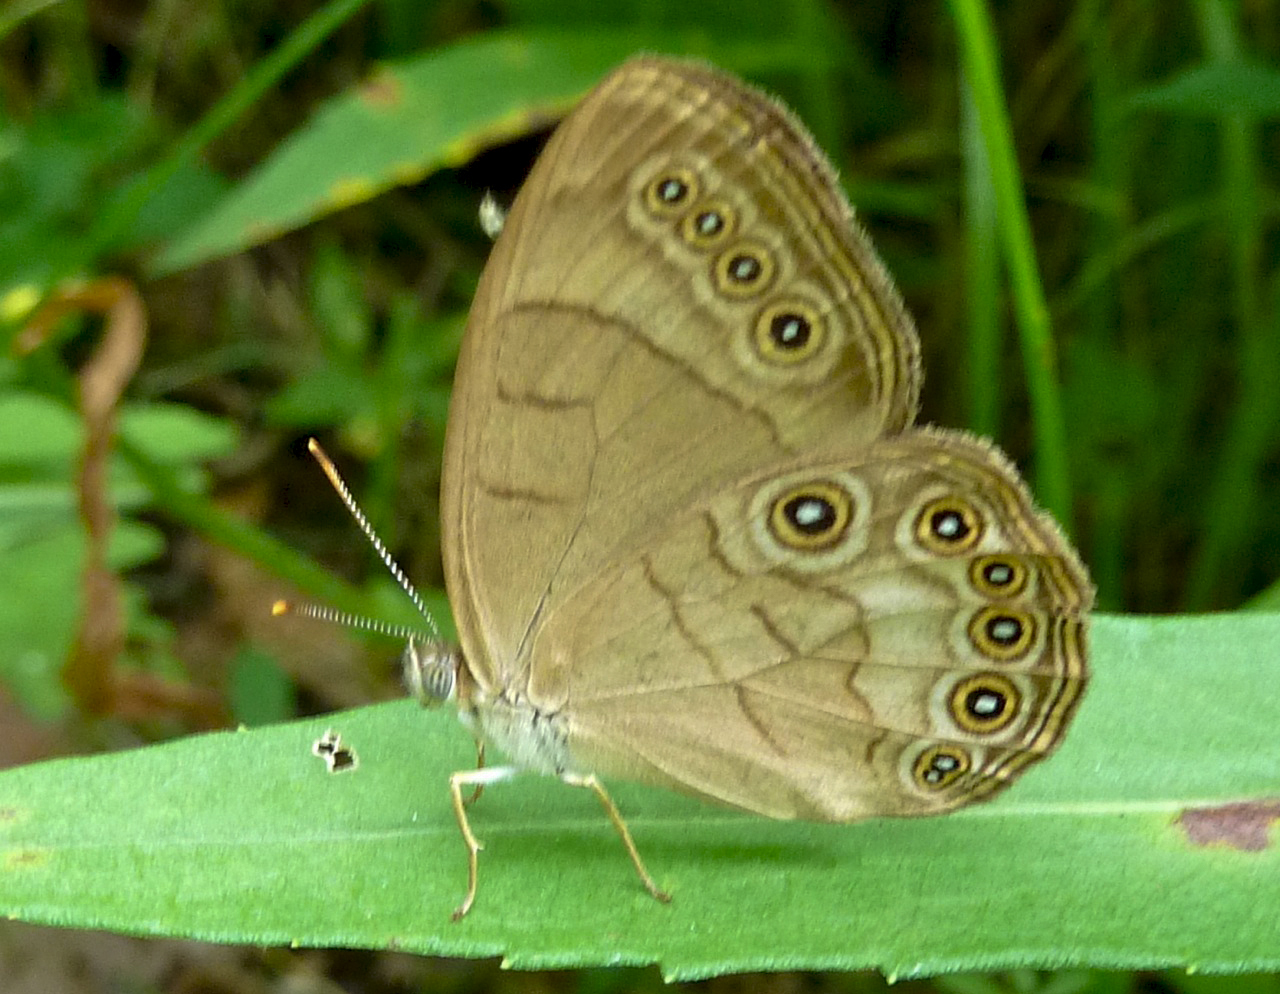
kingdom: Animalia
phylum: Arthropoda
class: Insecta
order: Lepidoptera
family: Nymphalidae
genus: Lethe
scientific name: Lethe eurydice
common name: Eyed brown
